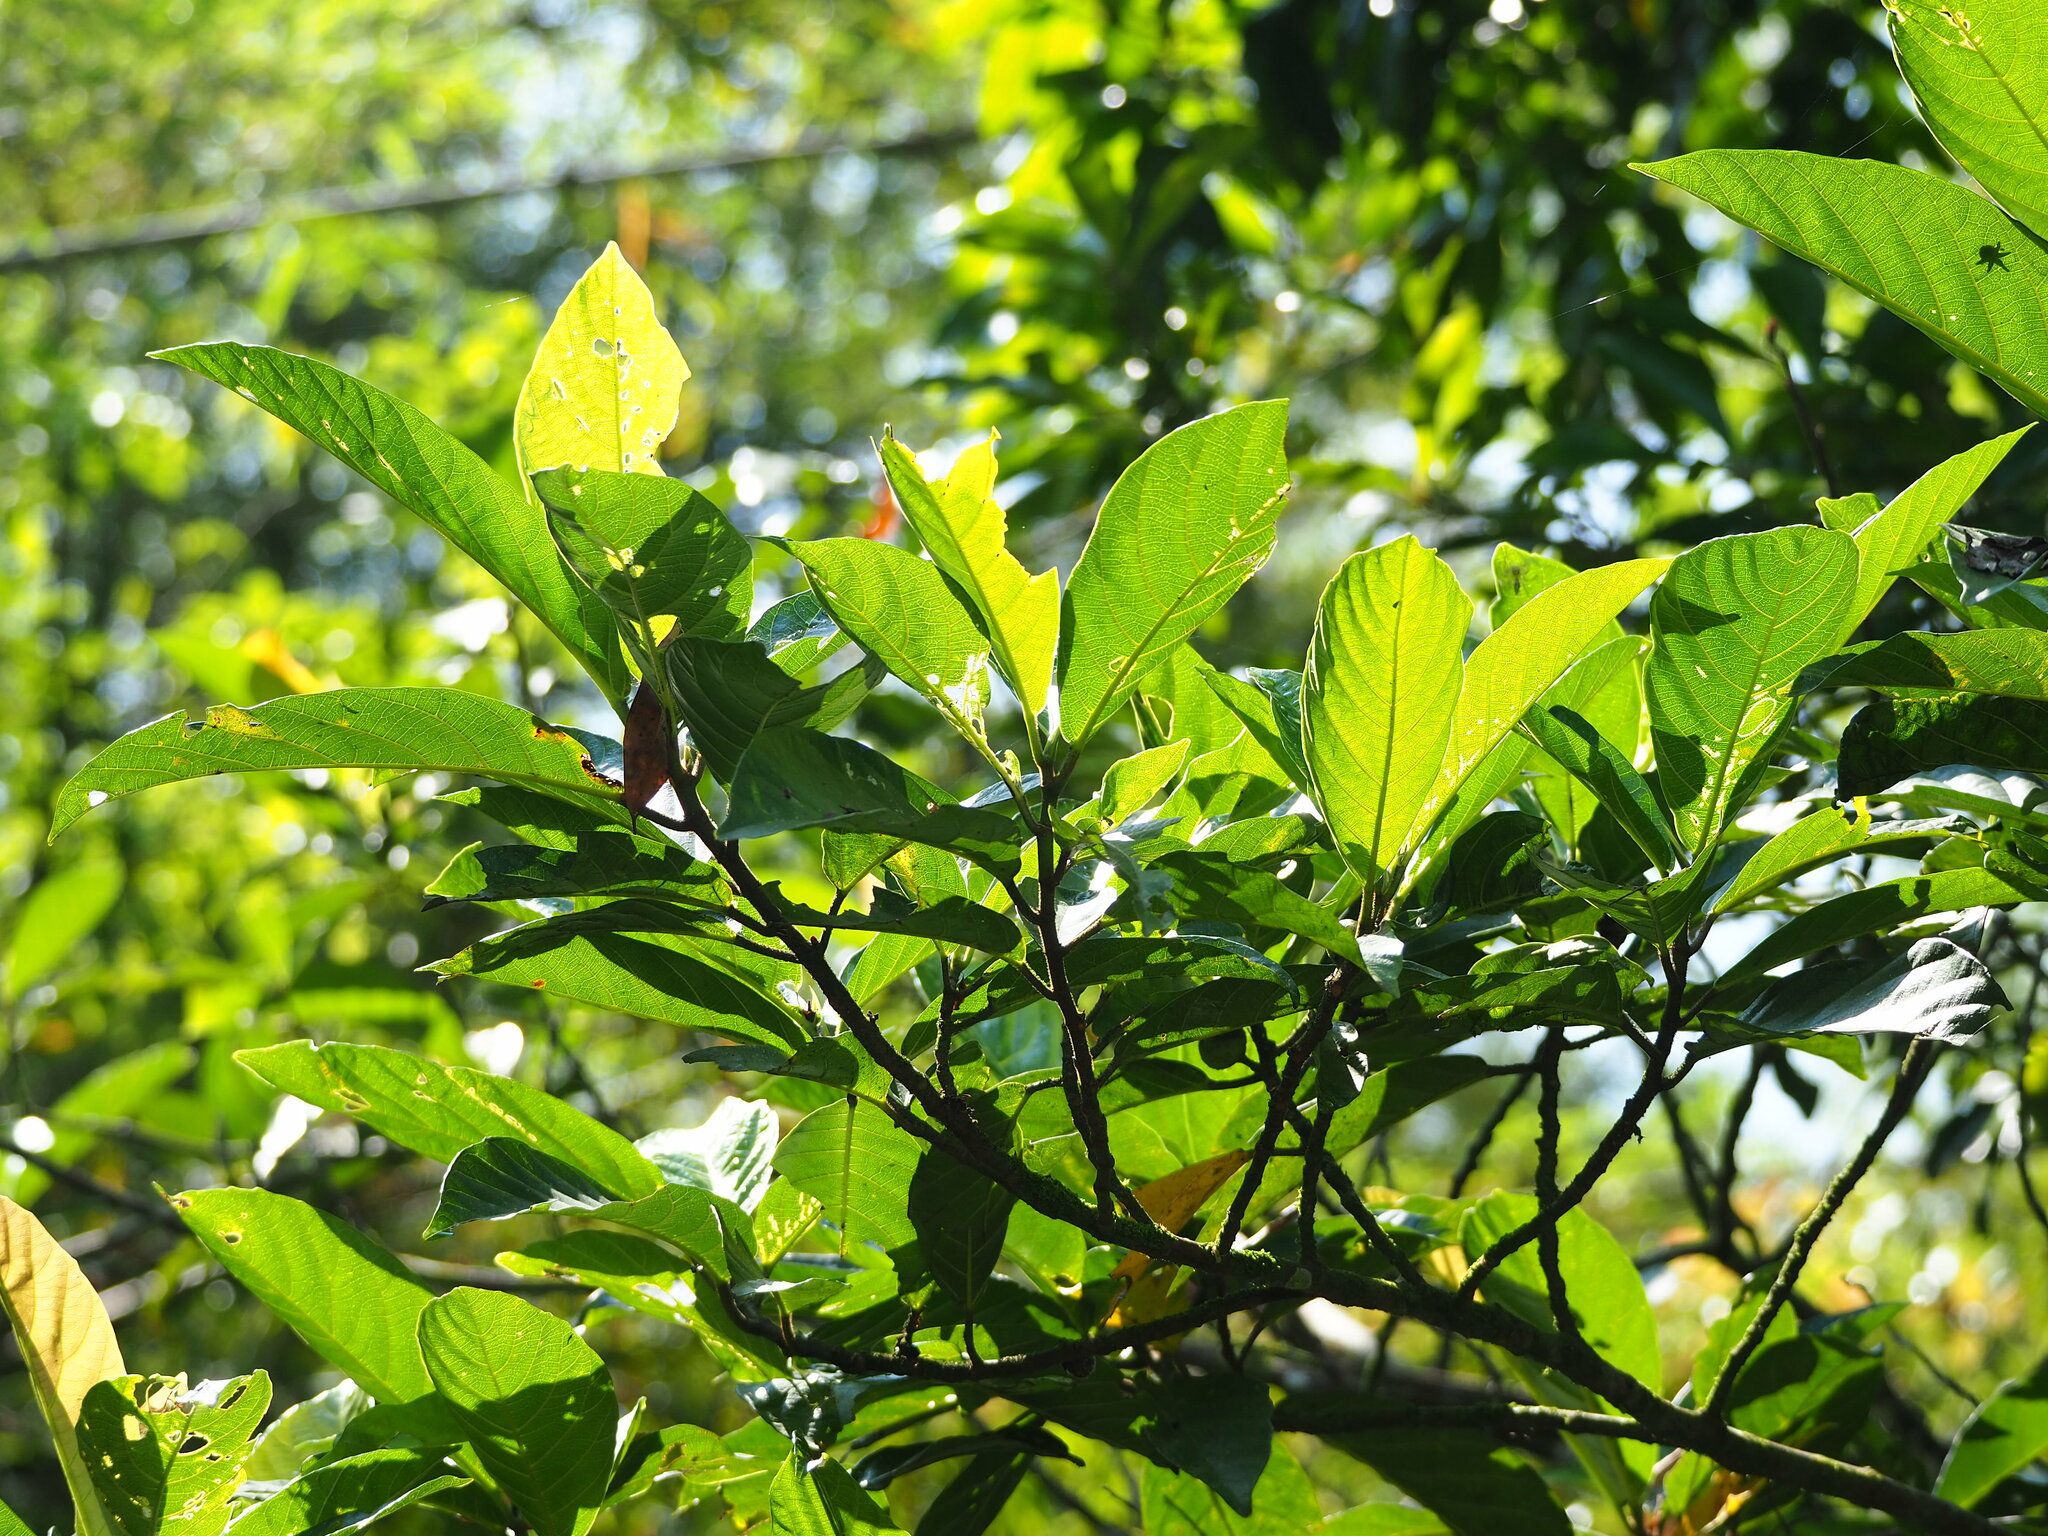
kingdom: Plantae
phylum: Tracheophyta
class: Magnoliopsida
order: Rosales
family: Moraceae
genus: Ficus
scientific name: Ficus benguetensis
